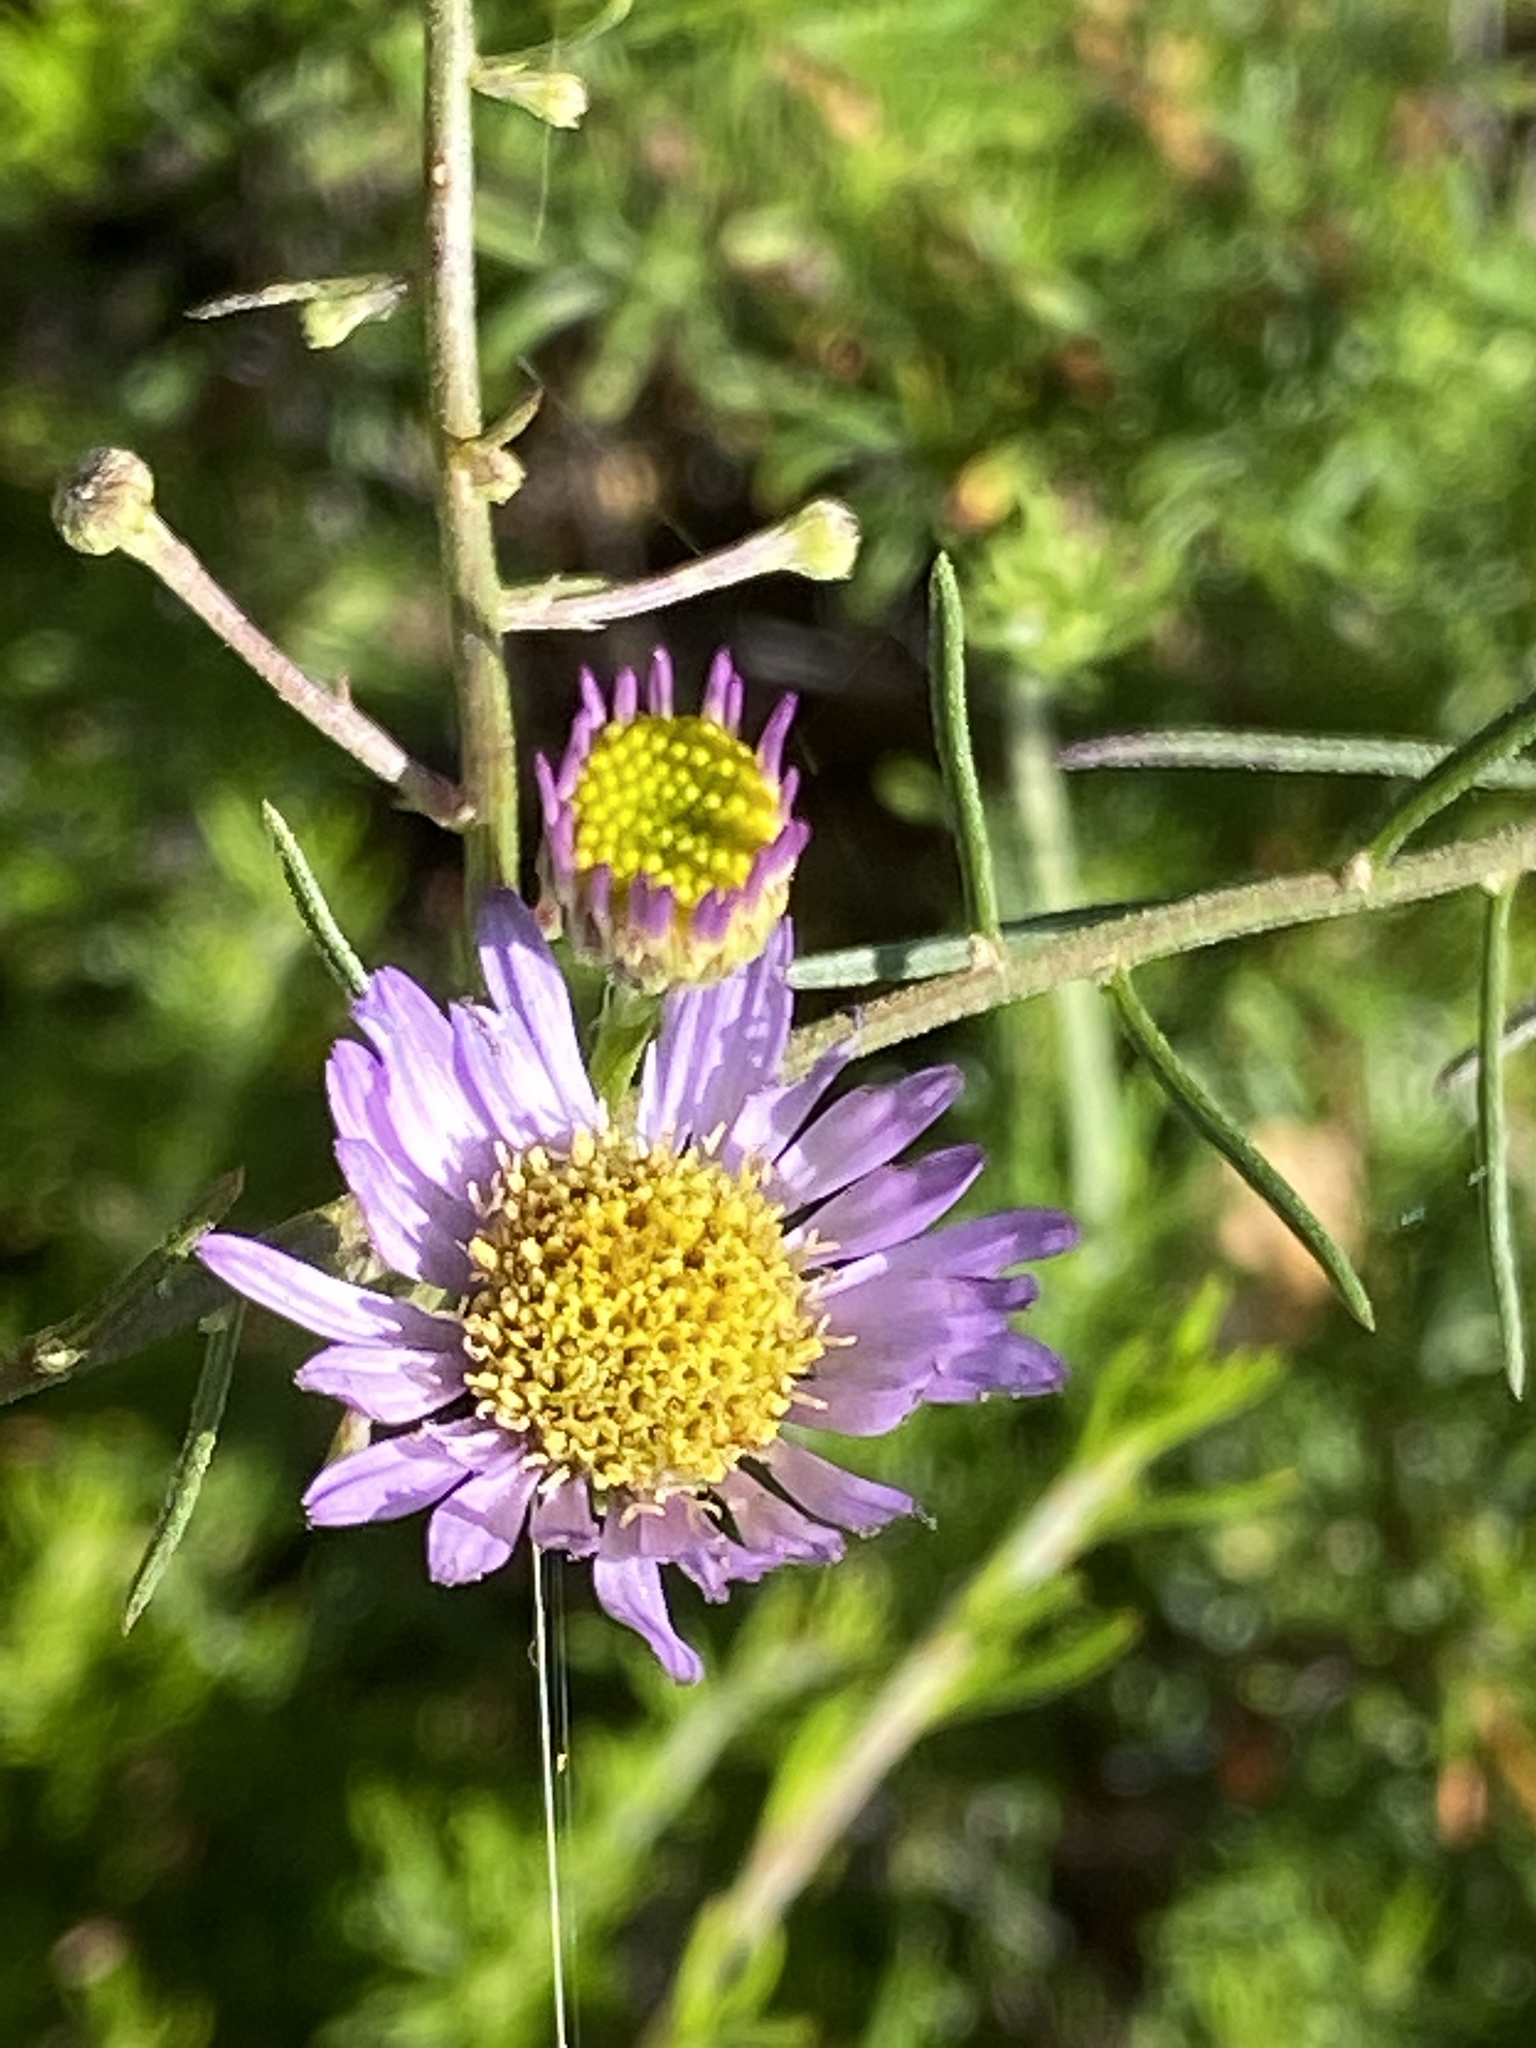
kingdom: Plantae
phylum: Tracheophyta
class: Magnoliopsida
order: Asterales
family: Asteraceae
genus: Erigeron
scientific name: Erigeron foliosus
